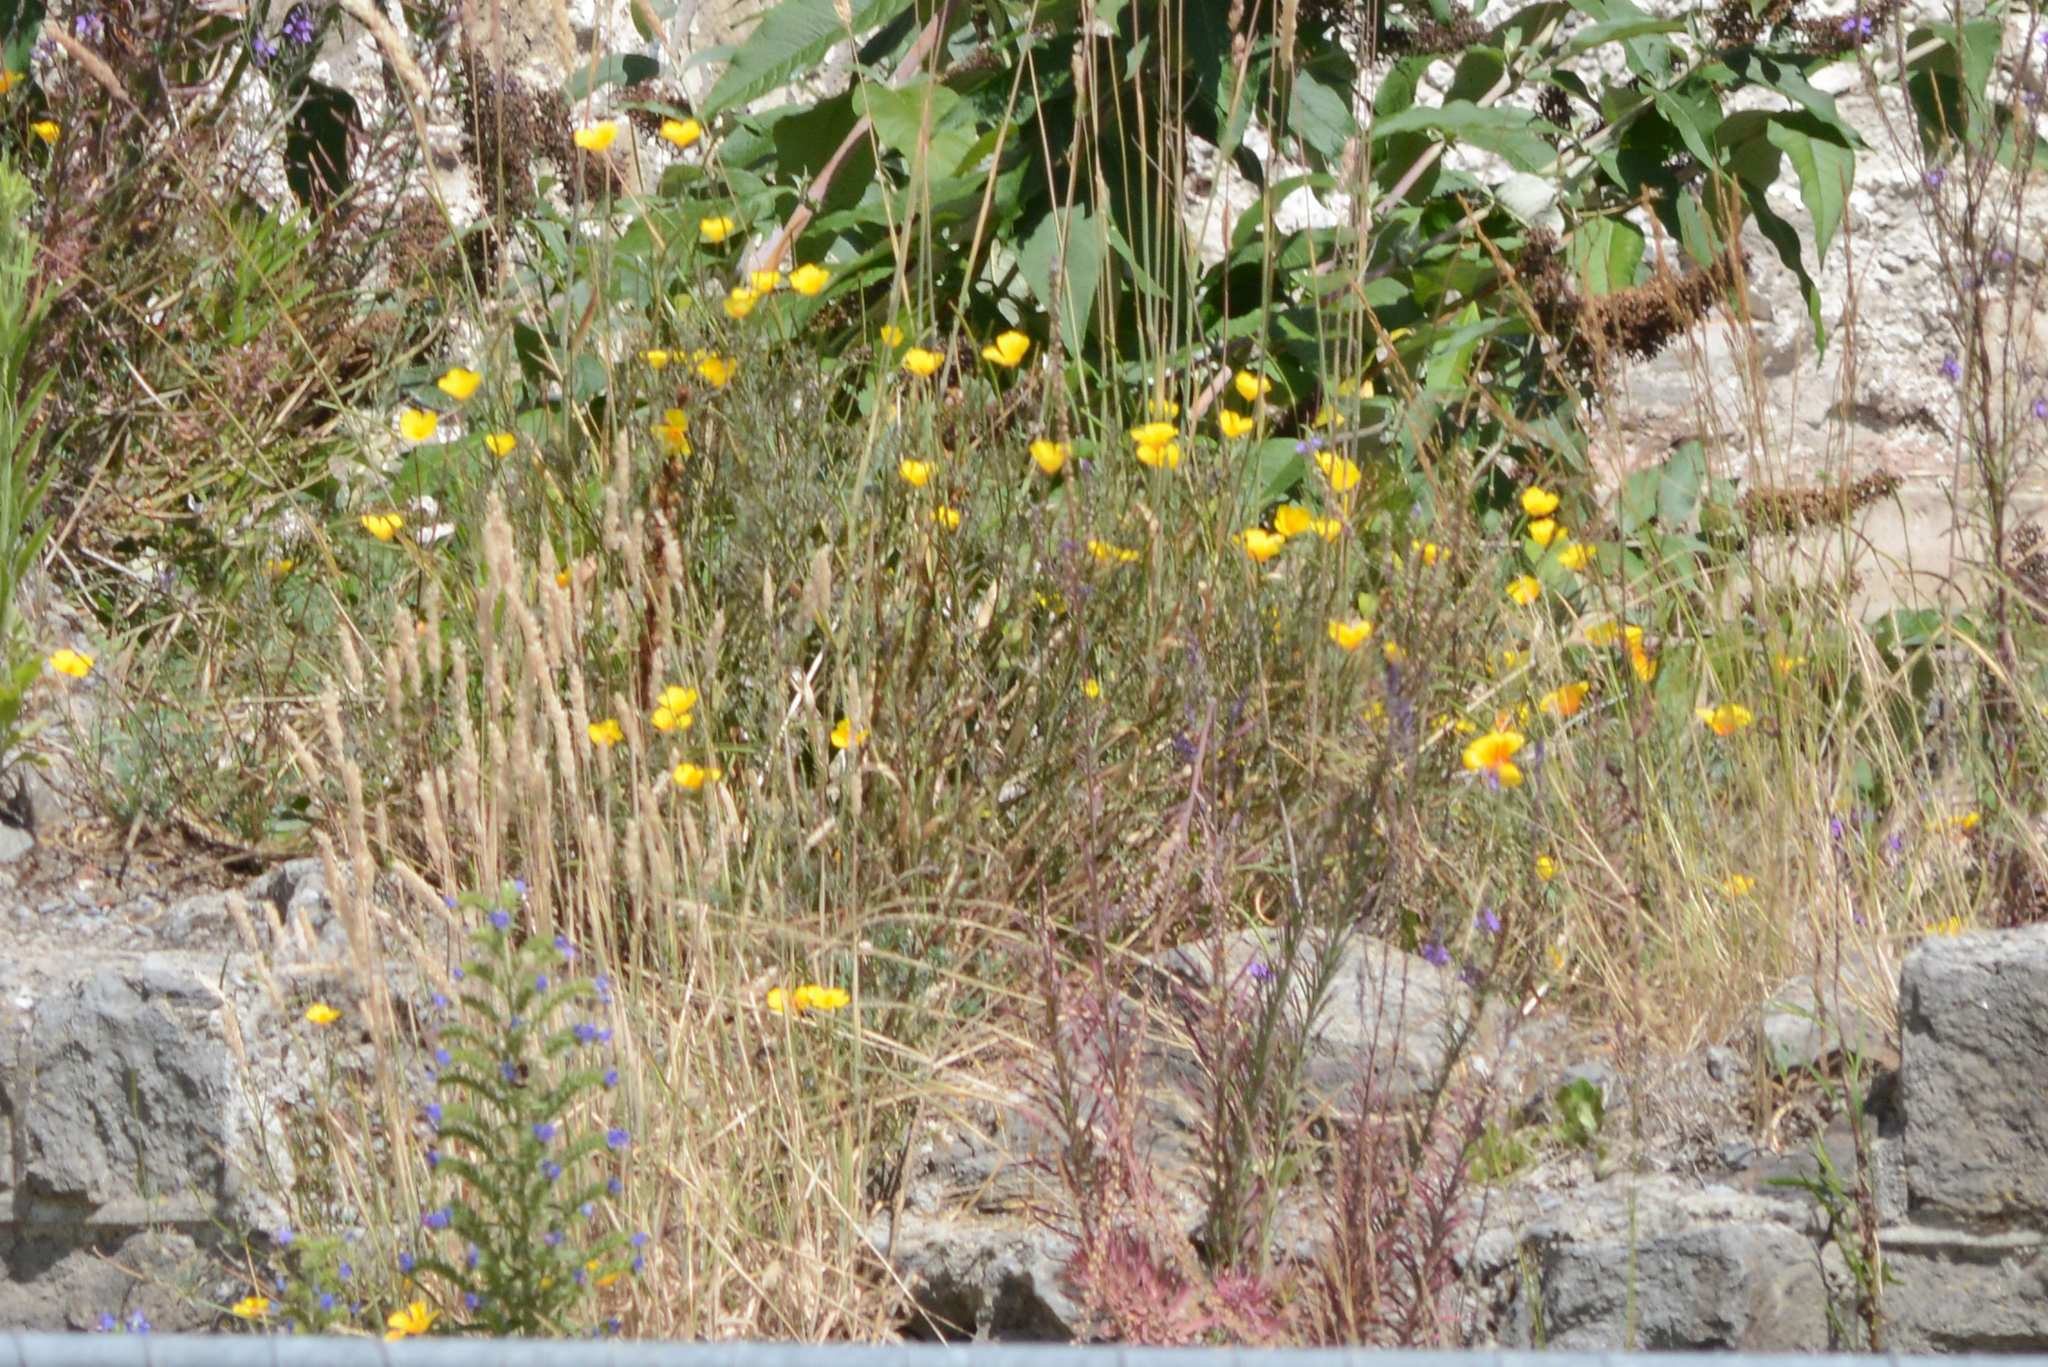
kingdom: Plantae
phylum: Tracheophyta
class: Magnoliopsida
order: Ranunculales
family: Papaveraceae
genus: Eschscholzia
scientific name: Eschscholzia californica
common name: California poppy
